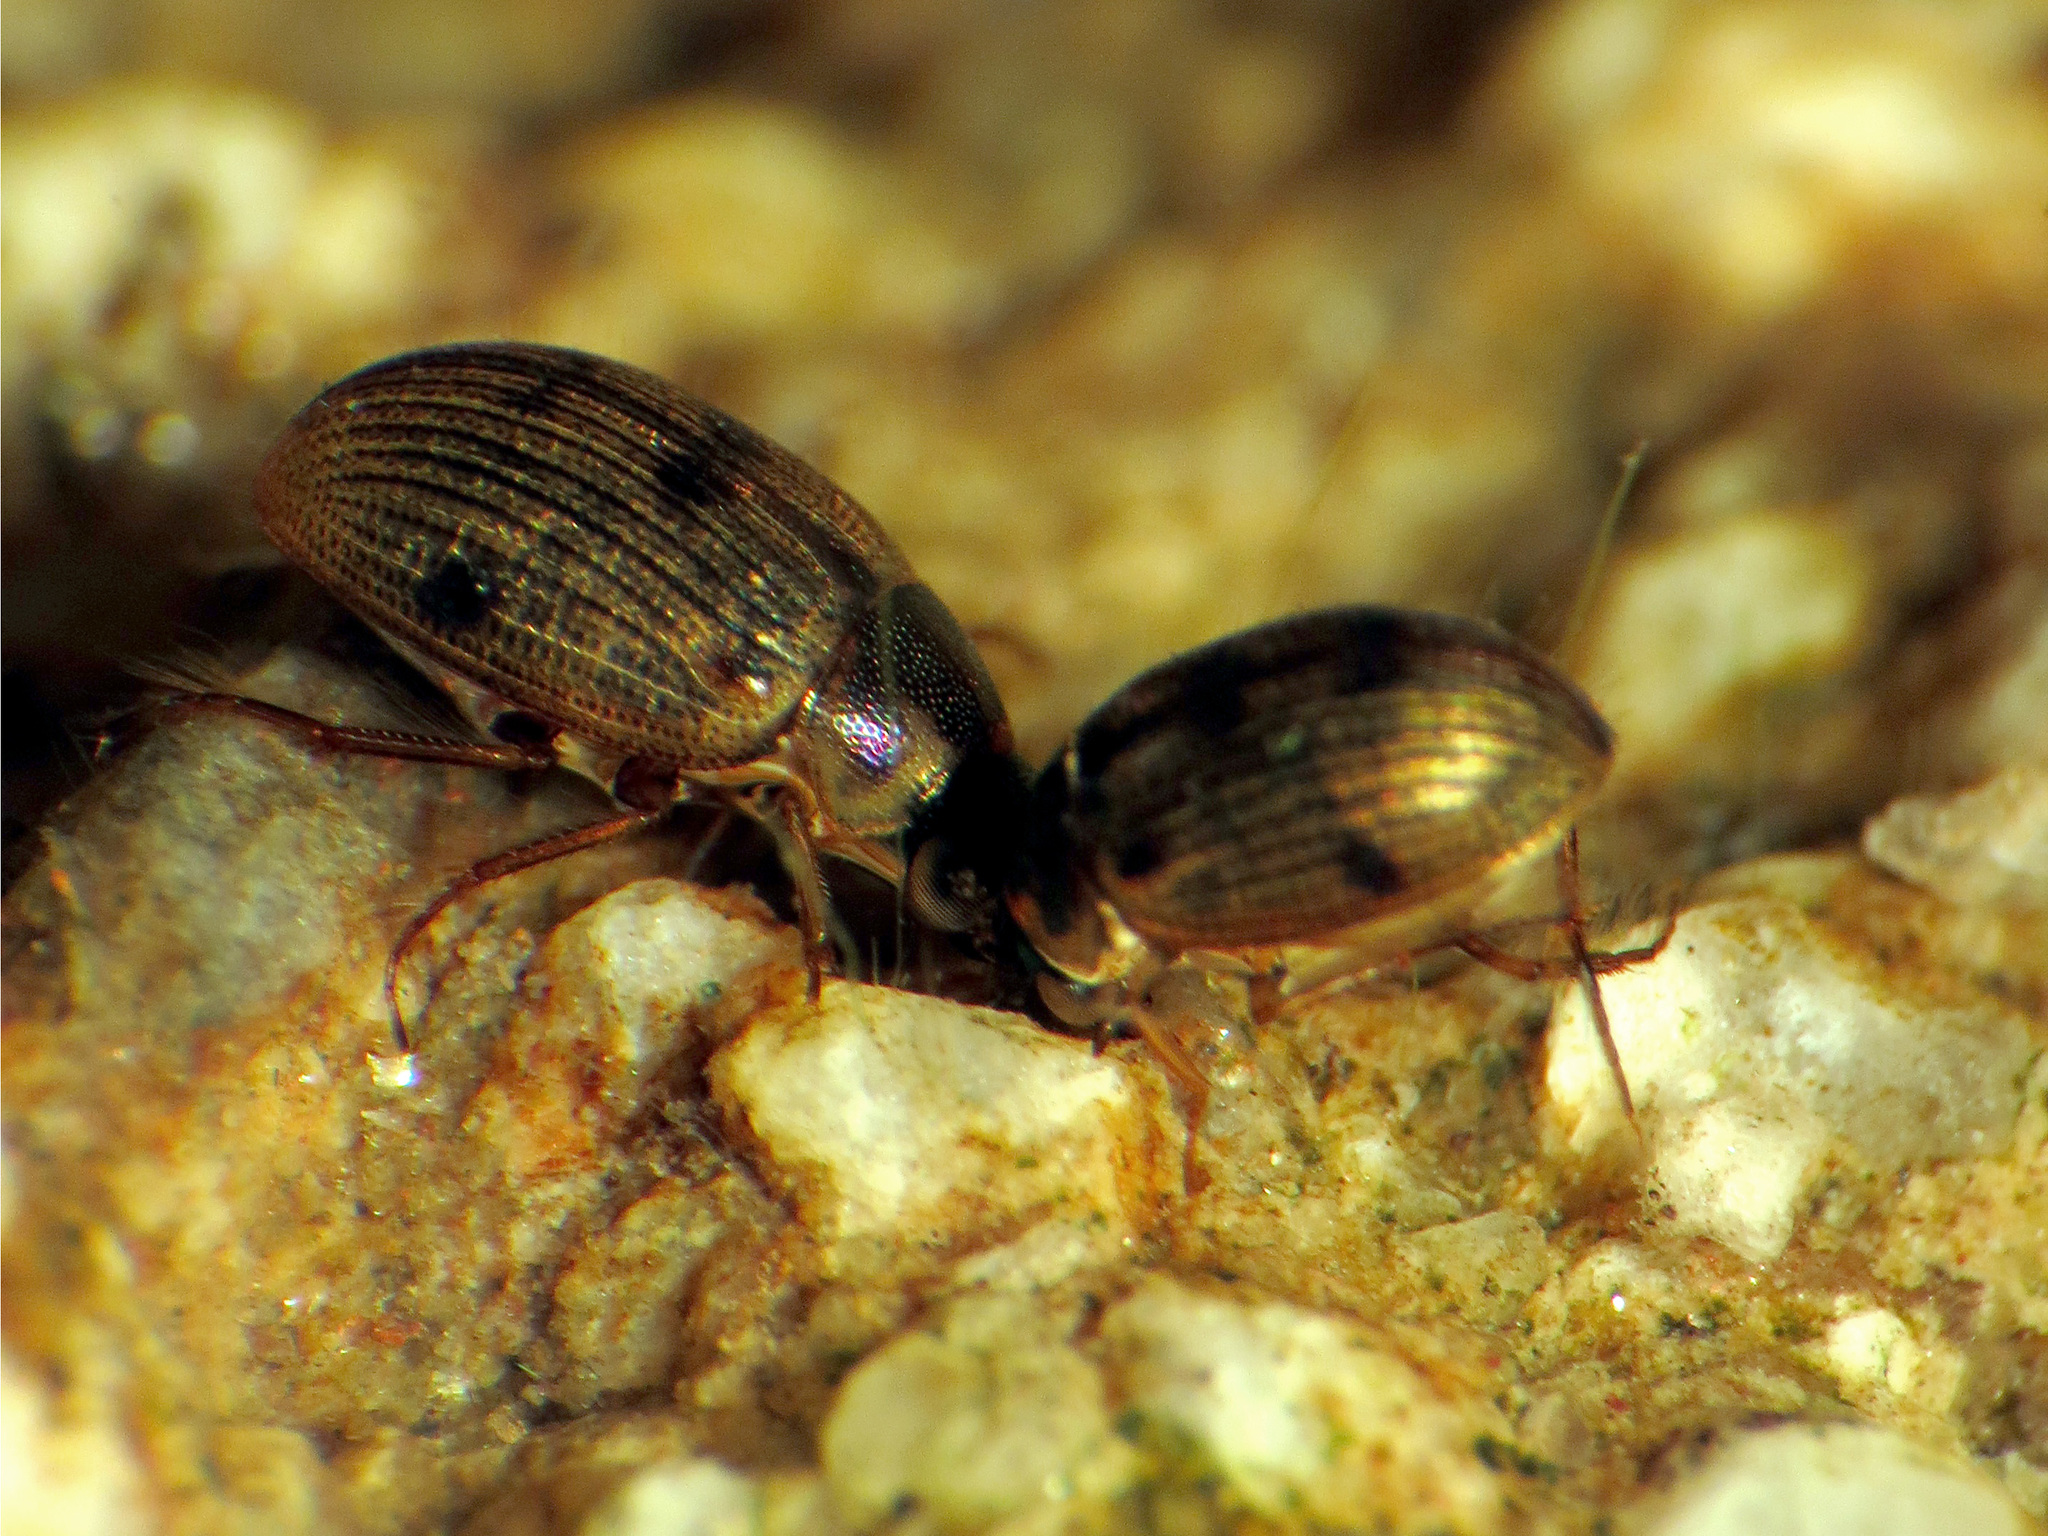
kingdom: Animalia
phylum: Arthropoda
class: Insecta
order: Coleoptera
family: Hydrophilidae
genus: Berosus
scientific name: Berosus
